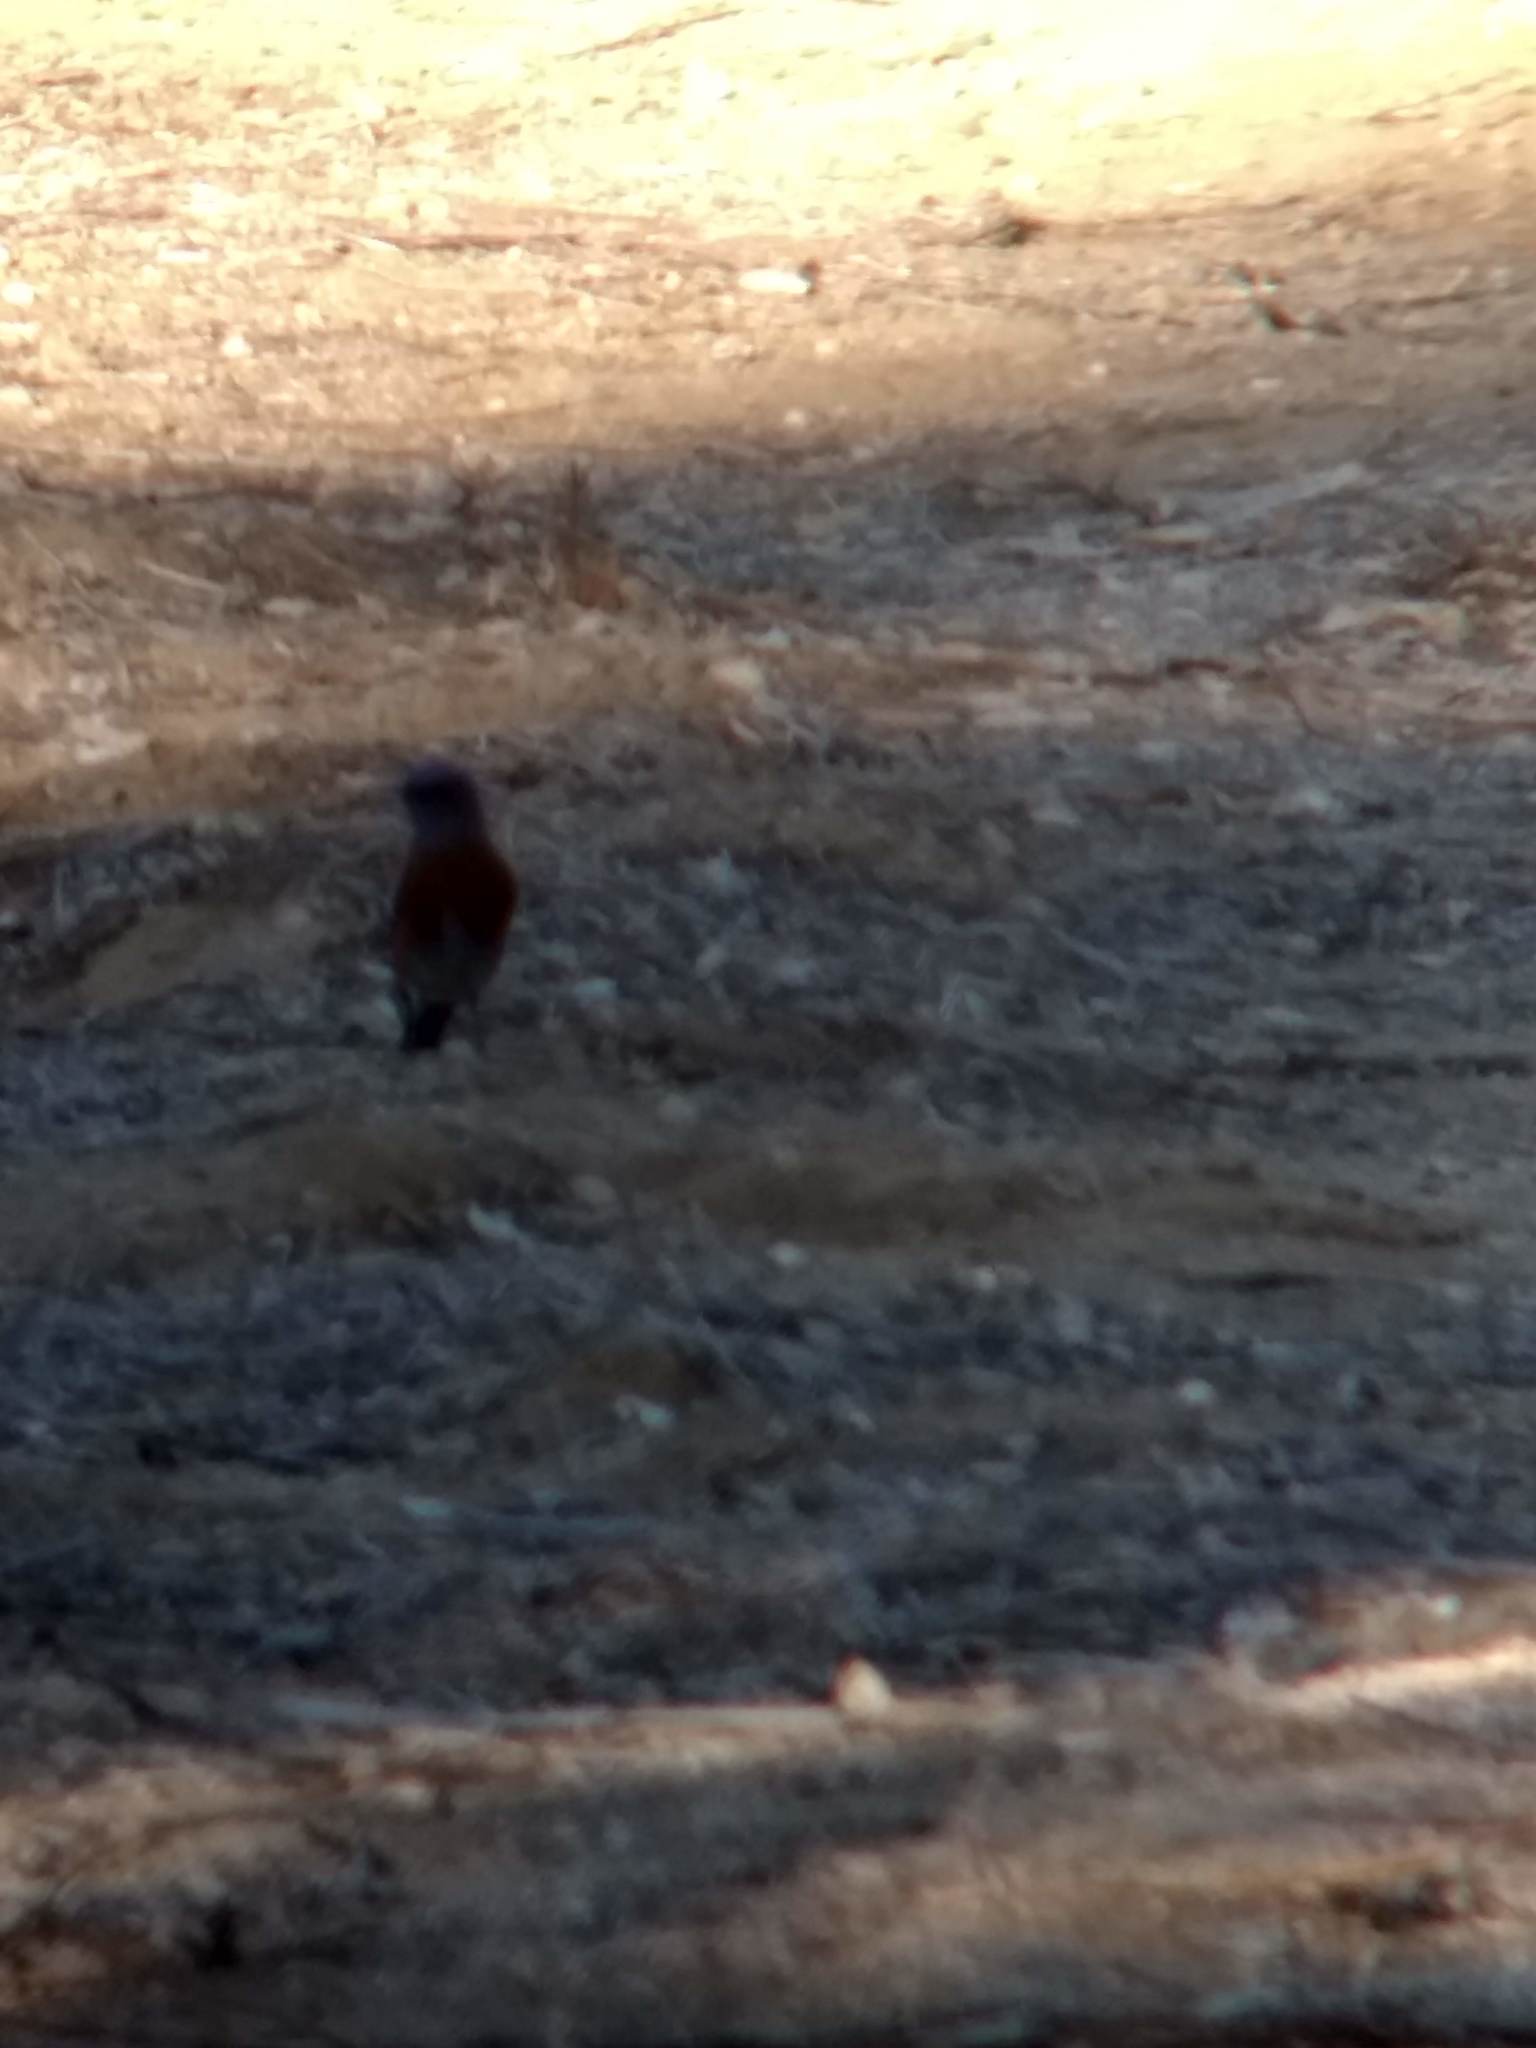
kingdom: Animalia
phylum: Chordata
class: Aves
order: Passeriformes
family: Turdidae
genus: Sialia
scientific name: Sialia mexicana
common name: Western bluebird
